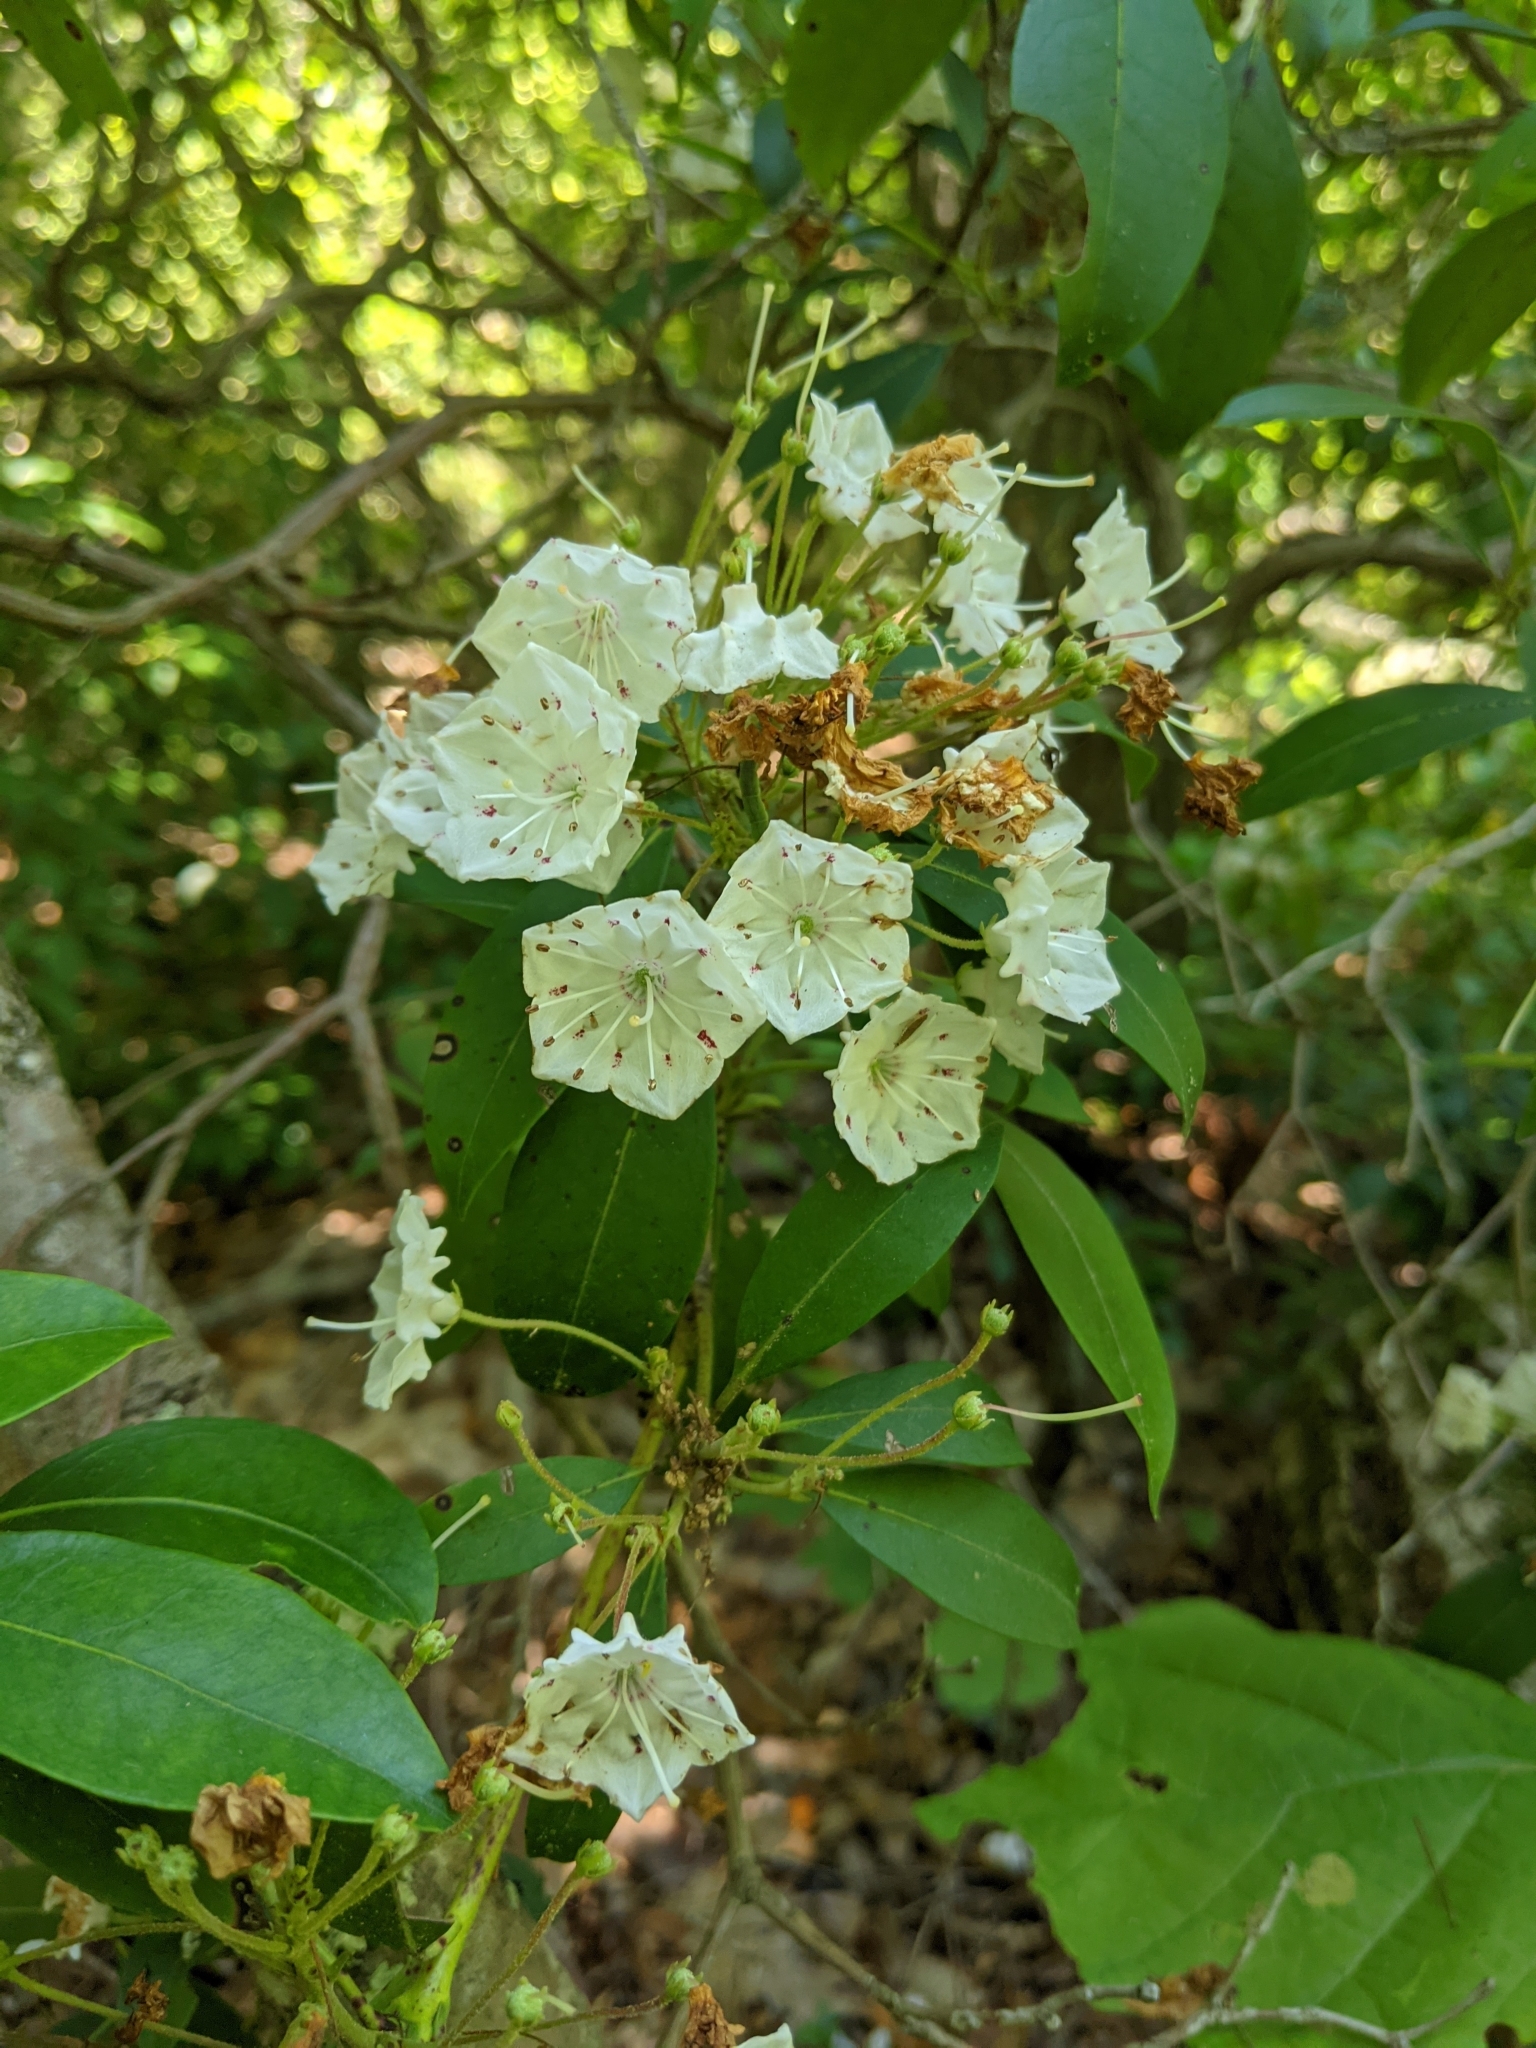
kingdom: Plantae
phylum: Tracheophyta
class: Magnoliopsida
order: Ericales
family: Ericaceae
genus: Kalmia
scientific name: Kalmia latifolia
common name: Mountain-laurel
